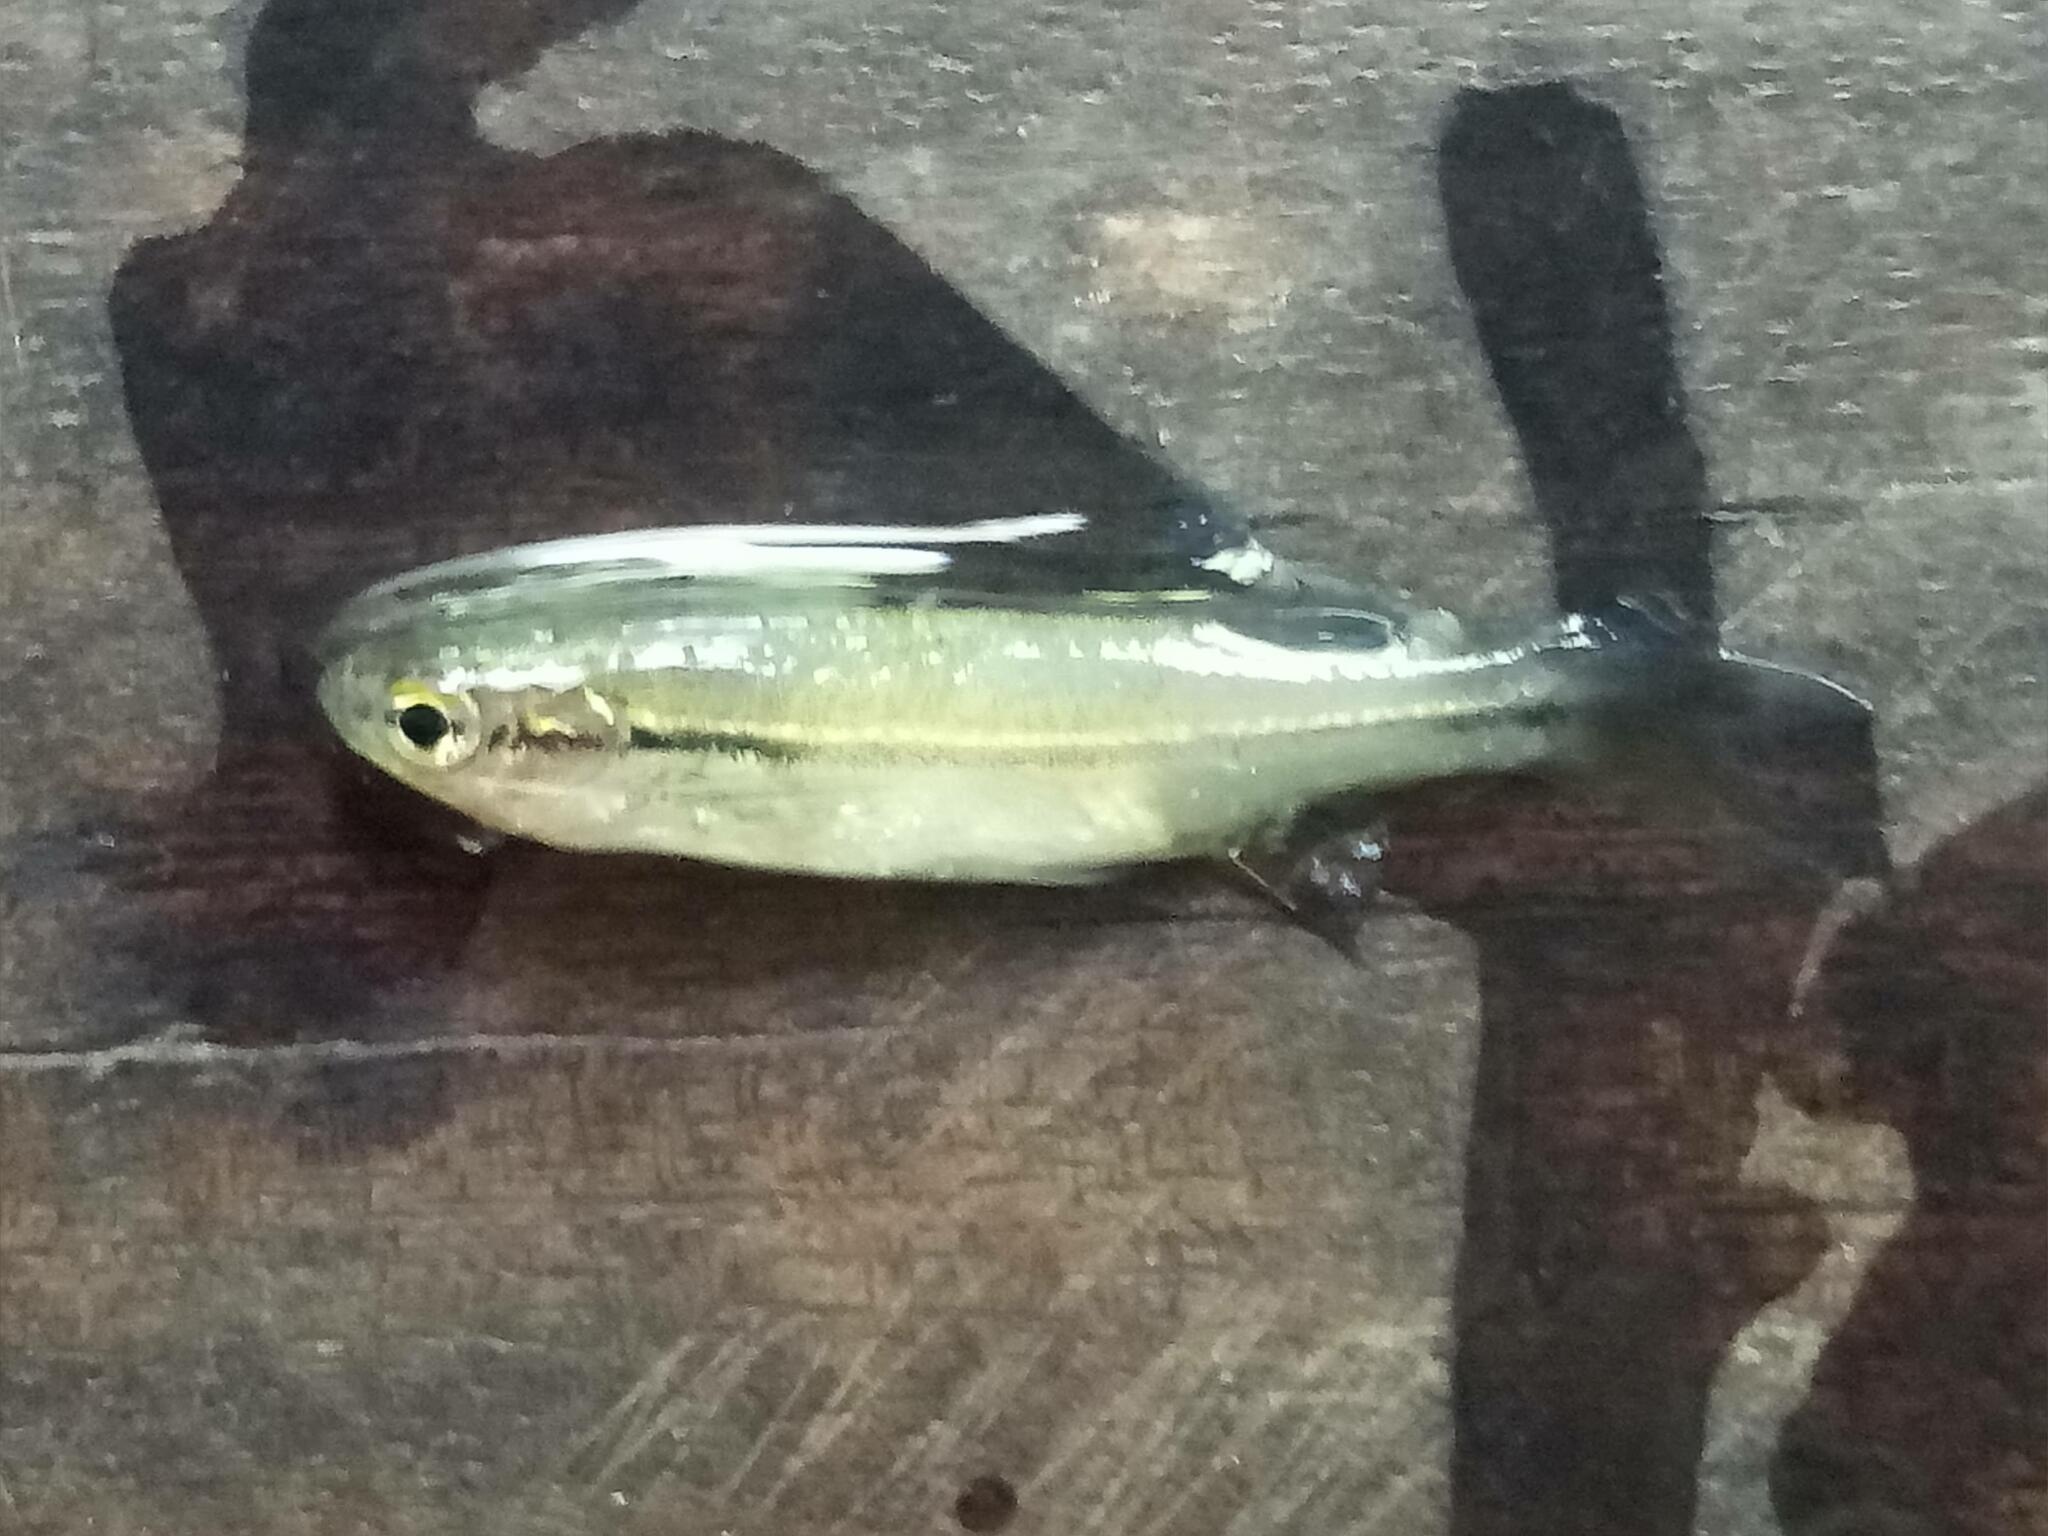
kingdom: Animalia
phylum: Chordata
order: Cypriniformes
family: Cyprinidae
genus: Esomus
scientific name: Esomus metallicus
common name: Striped flying barb
